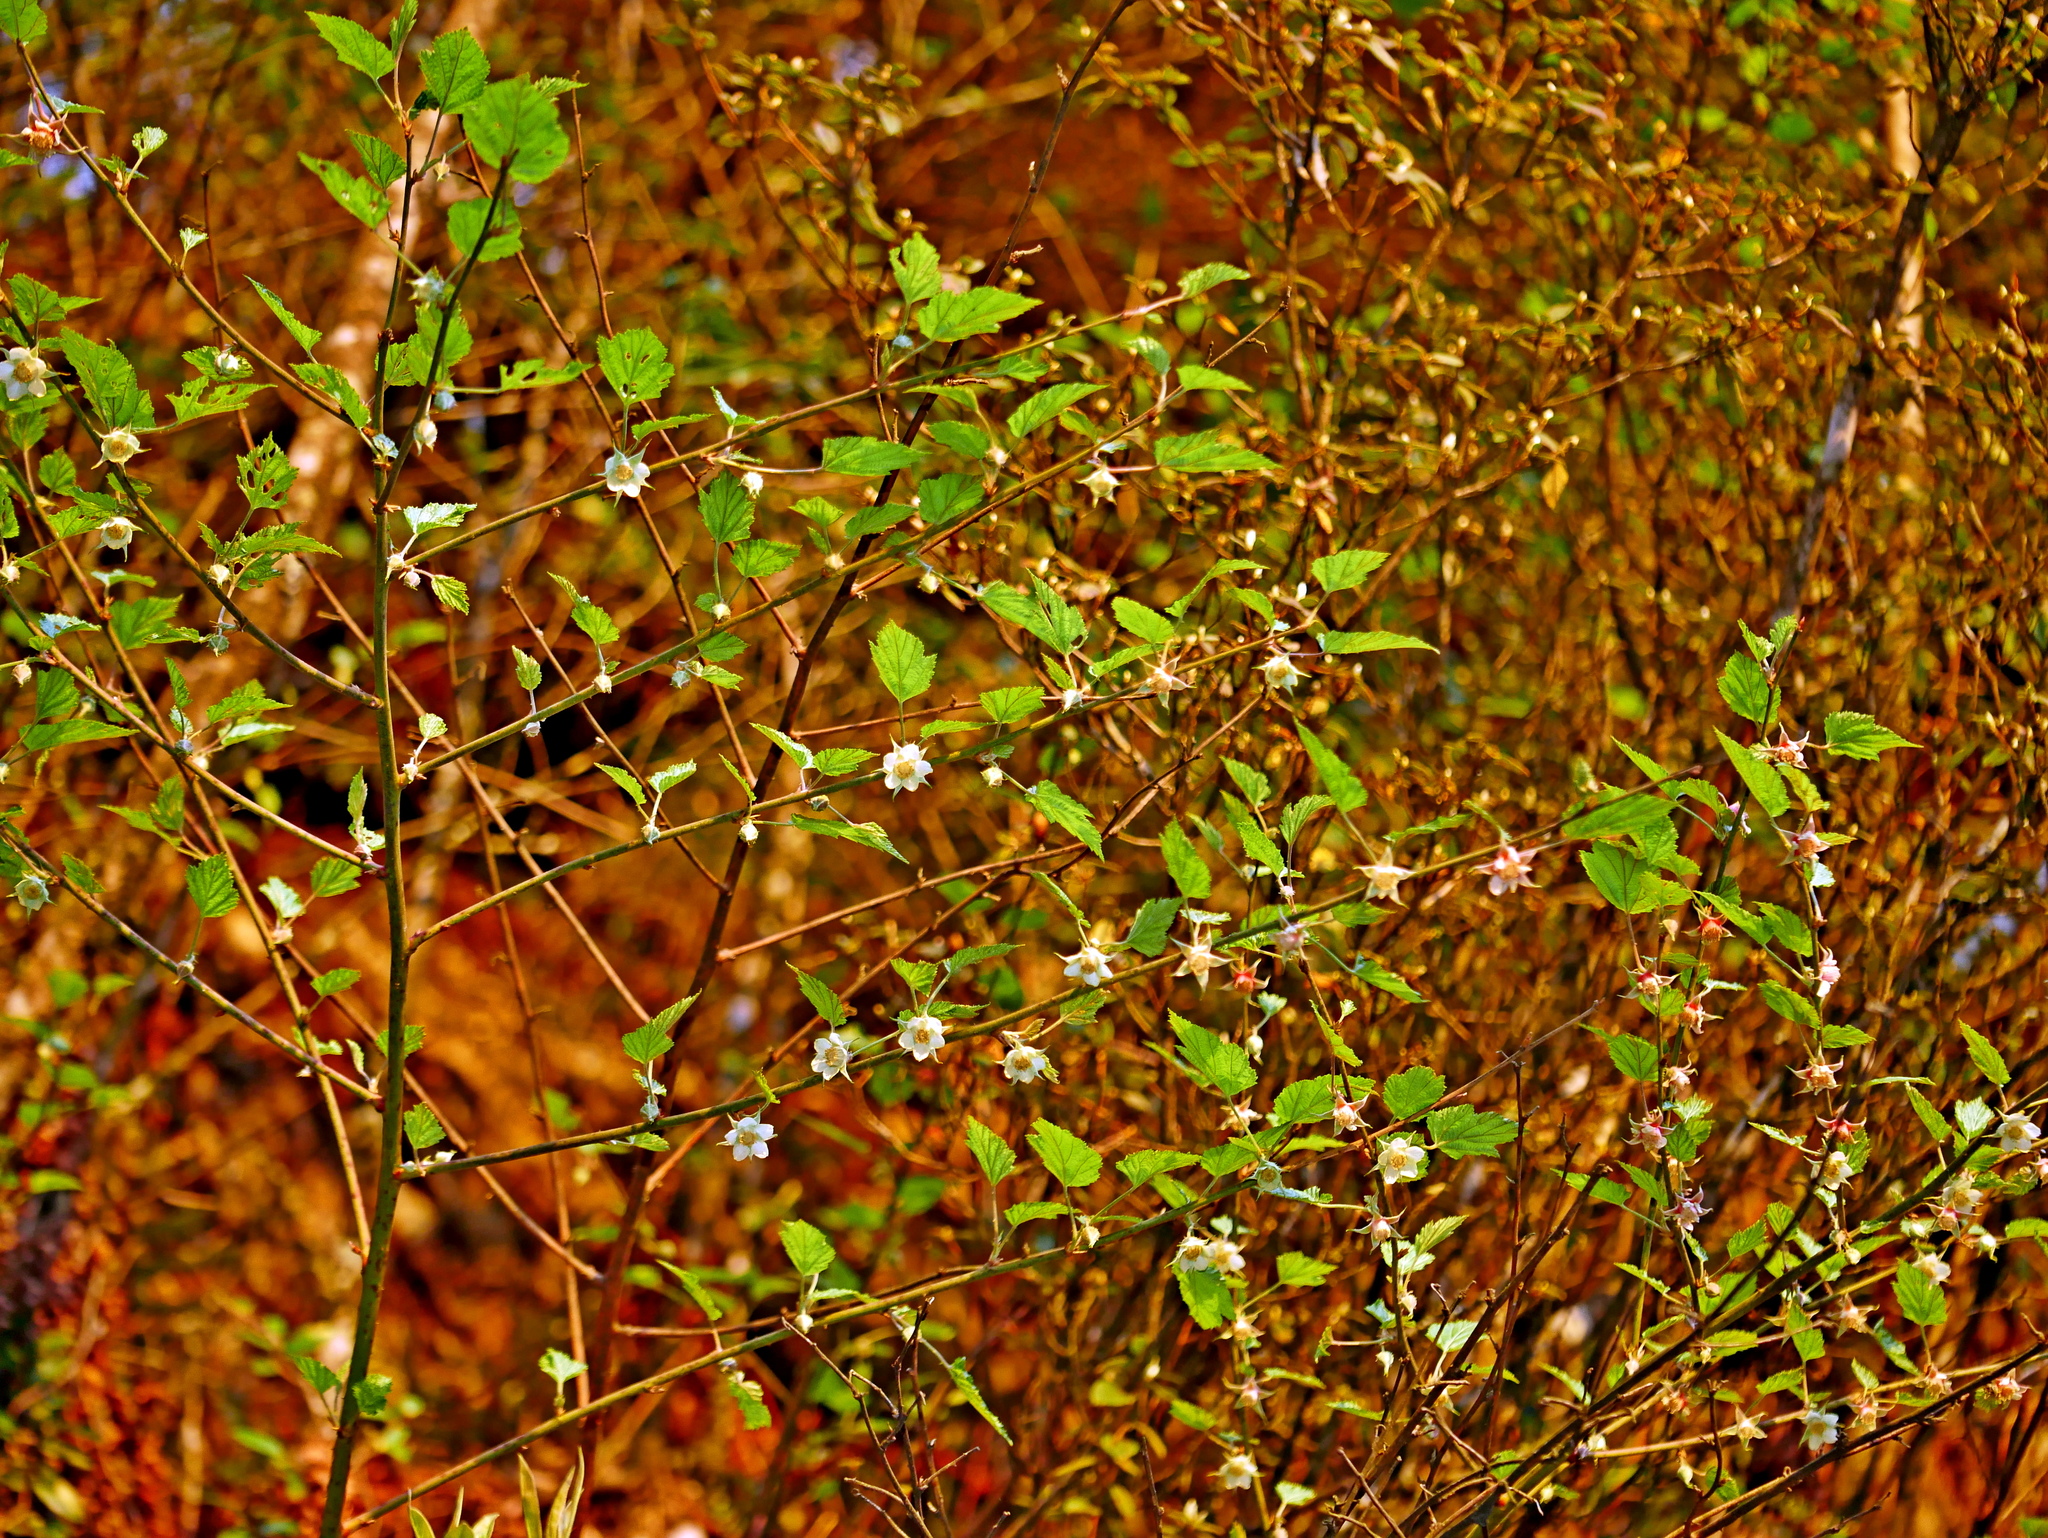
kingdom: Plantae
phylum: Tracheophyta
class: Magnoliopsida
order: Rosales
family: Rosaceae
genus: Rubus
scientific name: Rubus taitoensis
